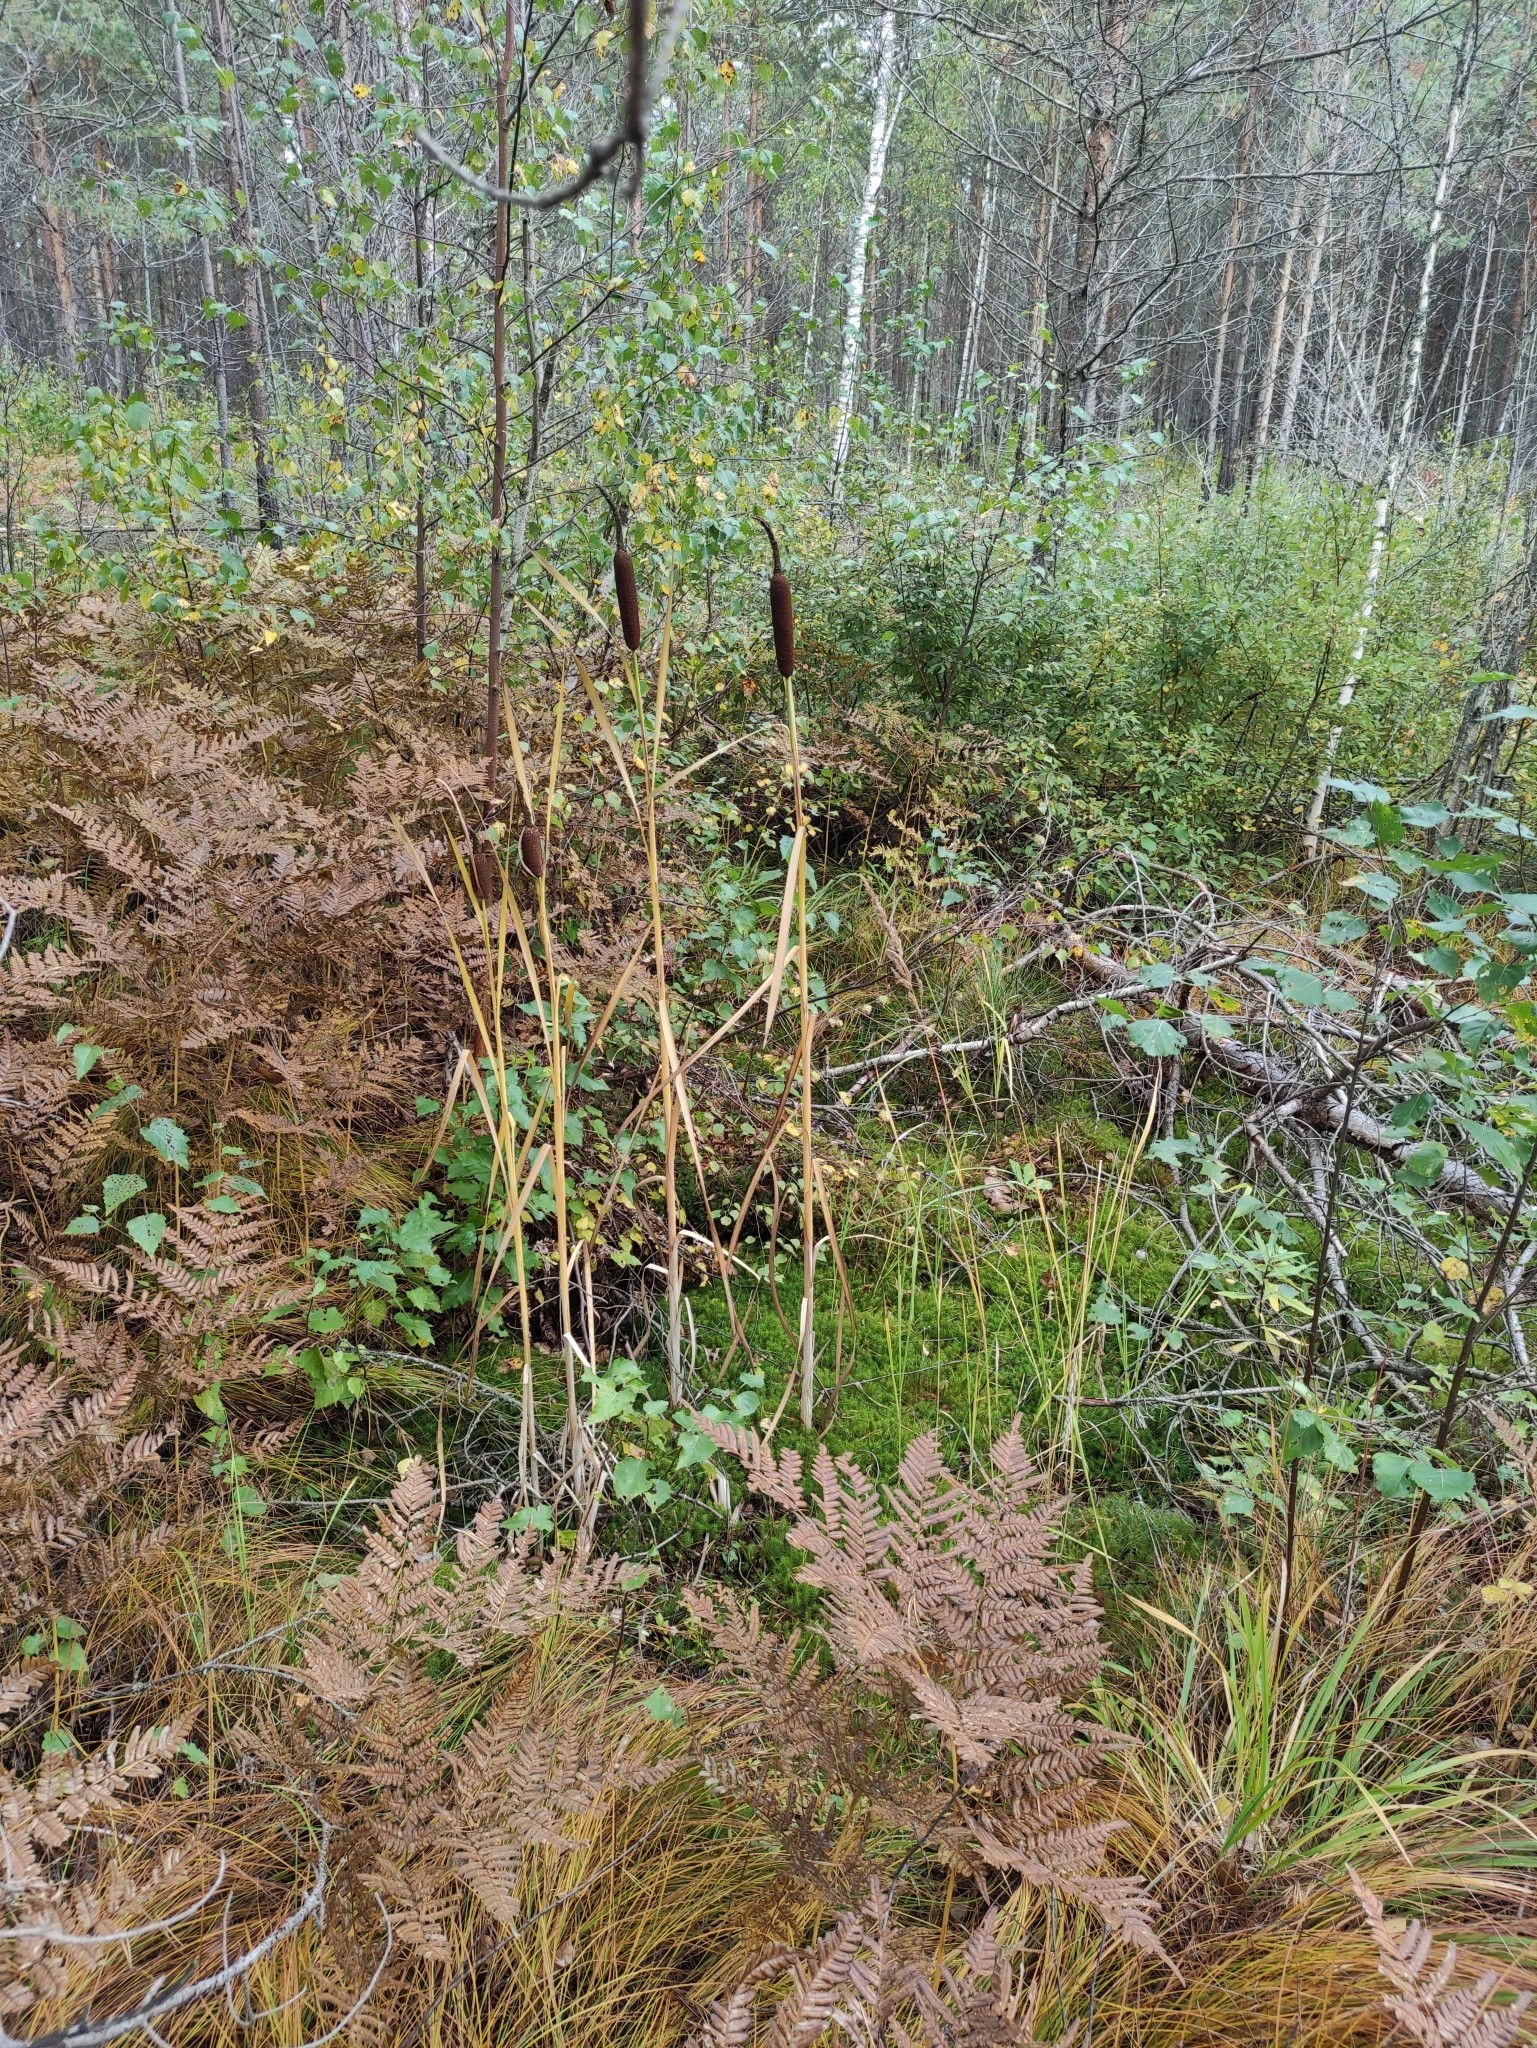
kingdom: Plantae
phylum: Tracheophyta
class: Liliopsida
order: Poales
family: Typhaceae
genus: Typha
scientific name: Typha latifolia
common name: Broadleaf cattail
